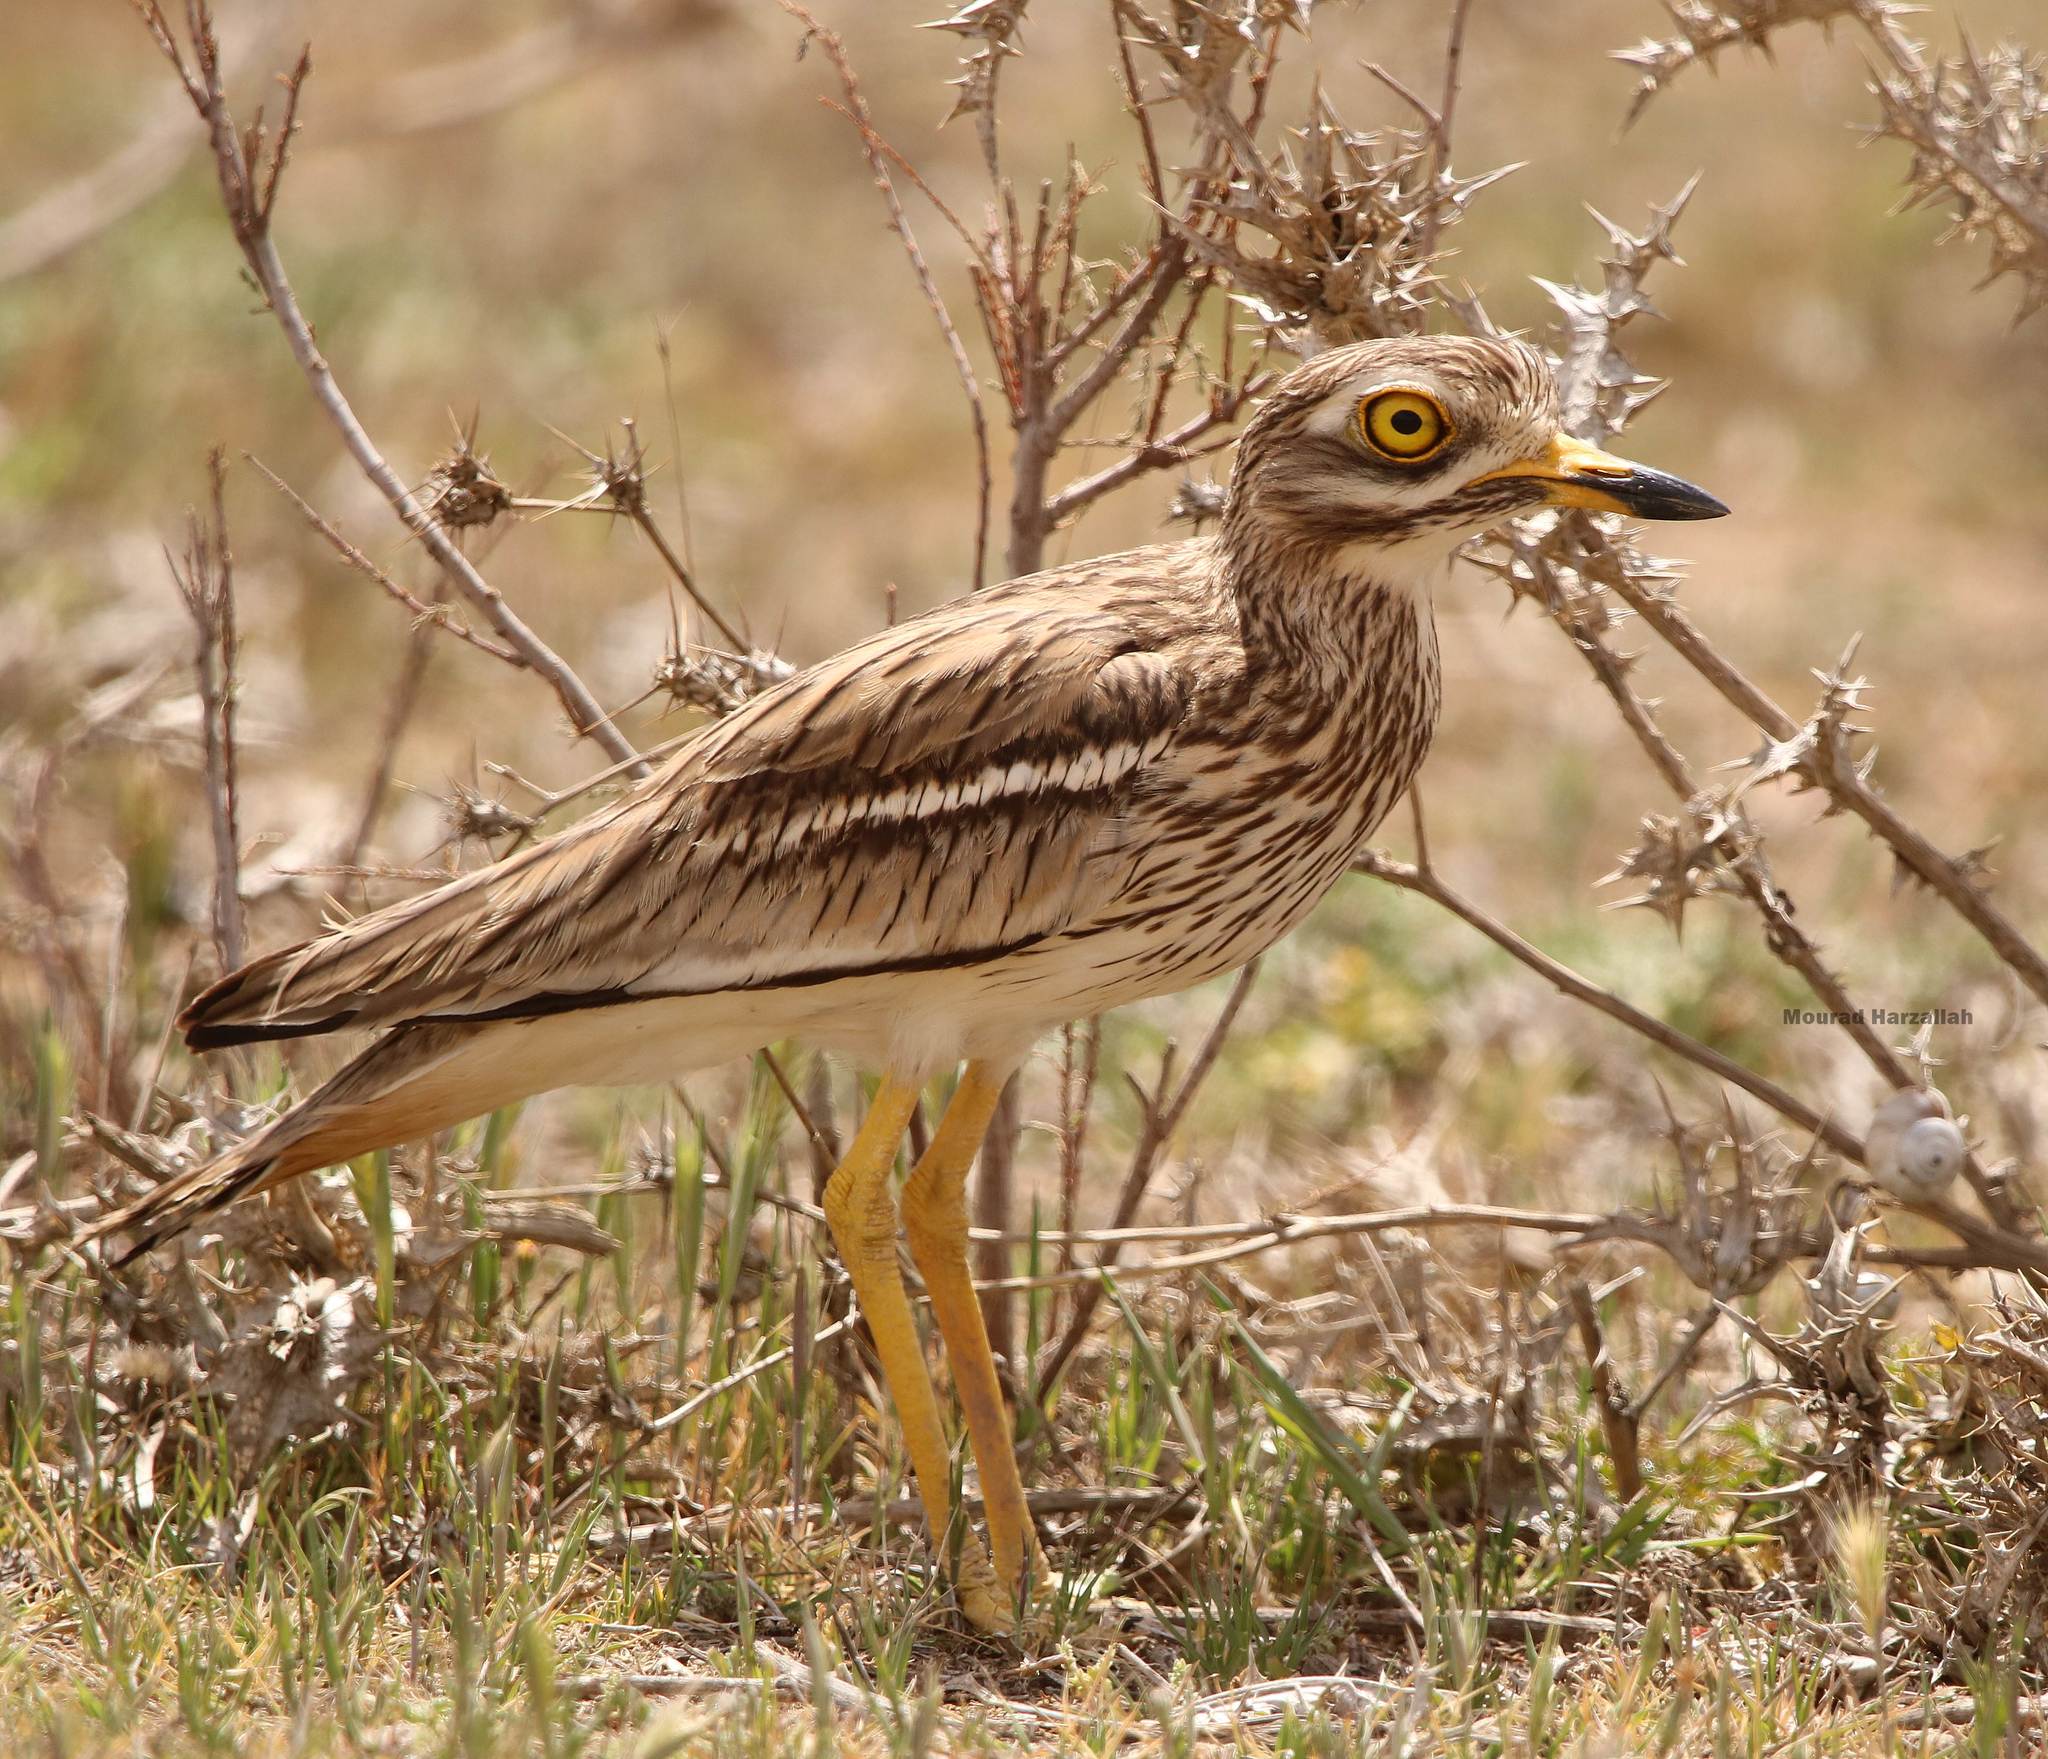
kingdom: Animalia
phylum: Chordata
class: Aves
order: Charadriiformes
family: Burhinidae
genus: Burhinus
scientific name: Burhinus oedicnemus
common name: Eurasian stone-curlew
